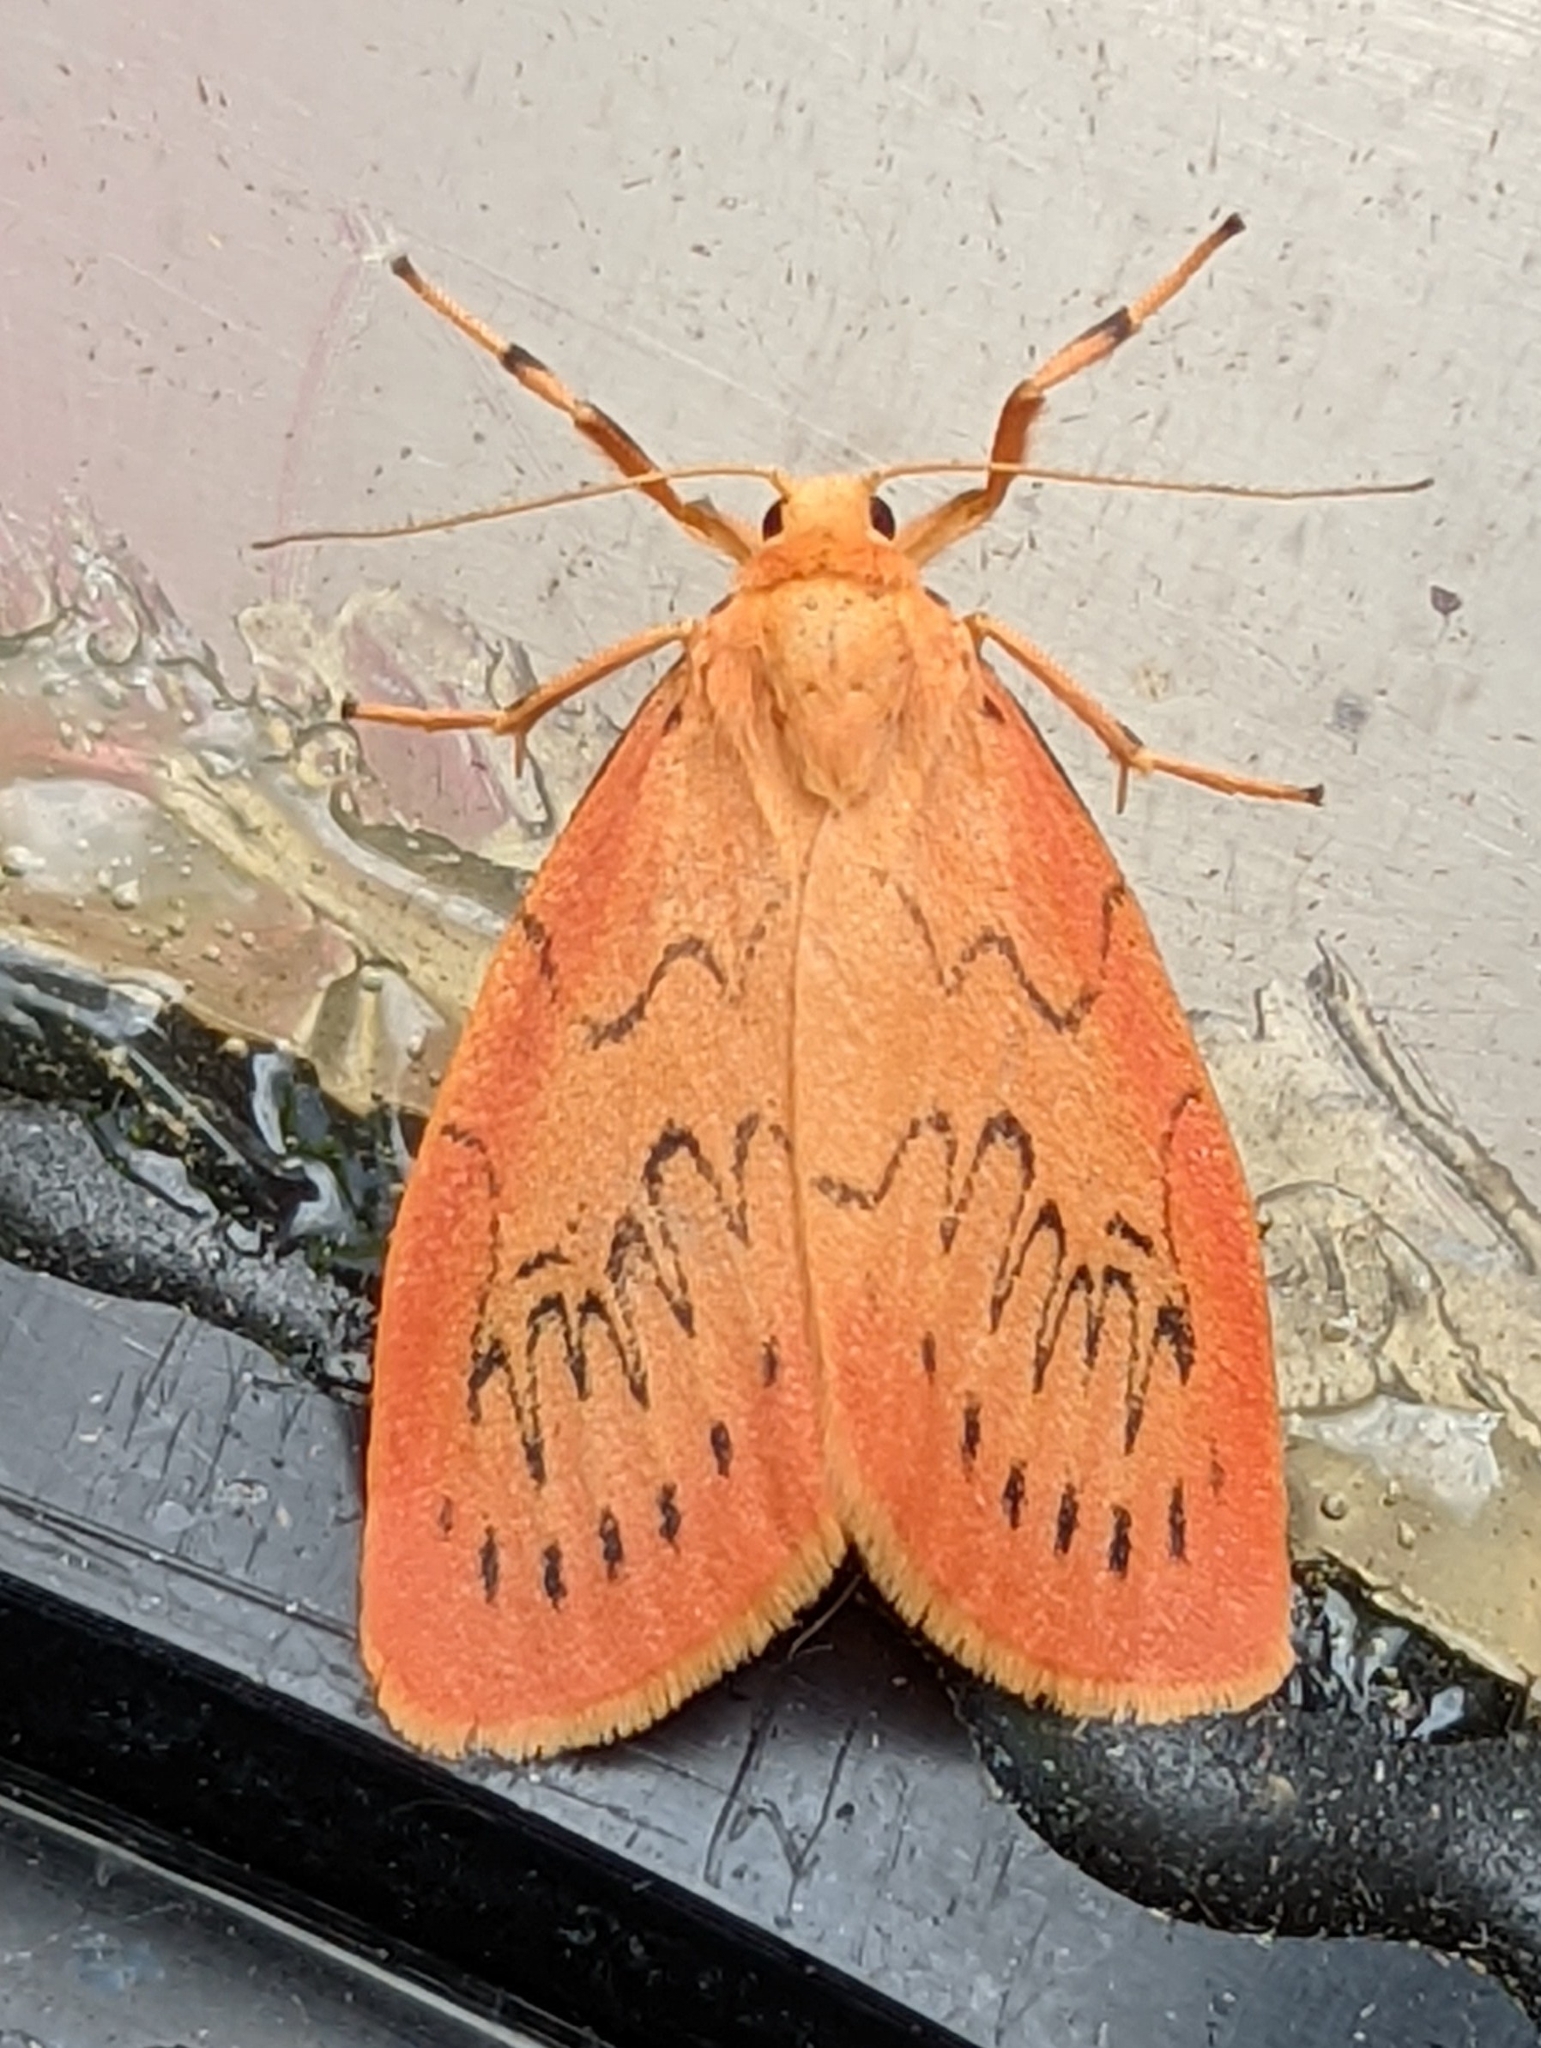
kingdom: Animalia
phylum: Arthropoda
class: Insecta
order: Lepidoptera
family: Erebidae
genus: Miltochrista
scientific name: Miltochrista miniata
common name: Rosy footman
